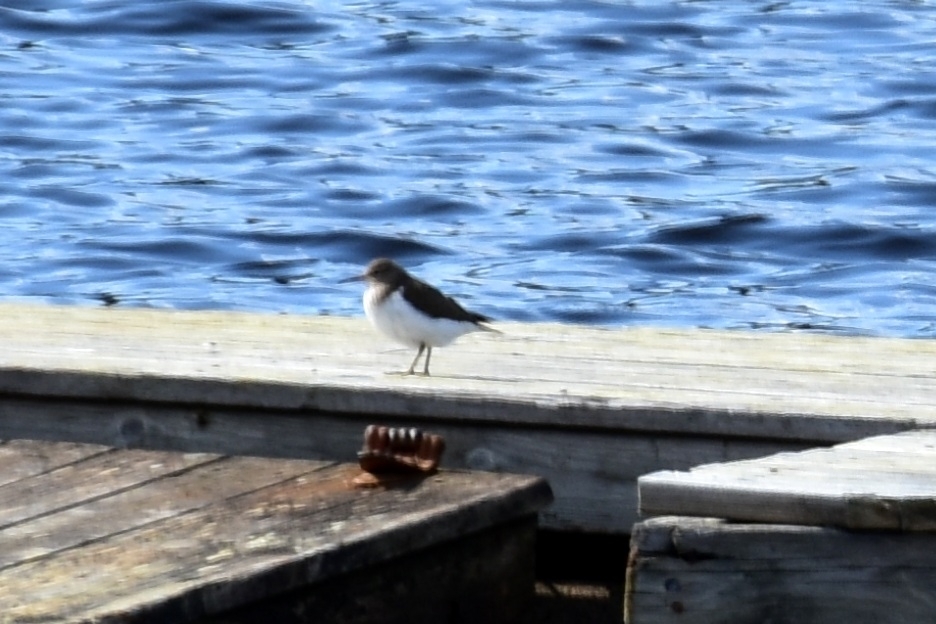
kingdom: Animalia
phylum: Chordata
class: Aves
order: Charadriiformes
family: Scolopacidae
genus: Actitis
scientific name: Actitis hypoleucos
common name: Common sandpiper
